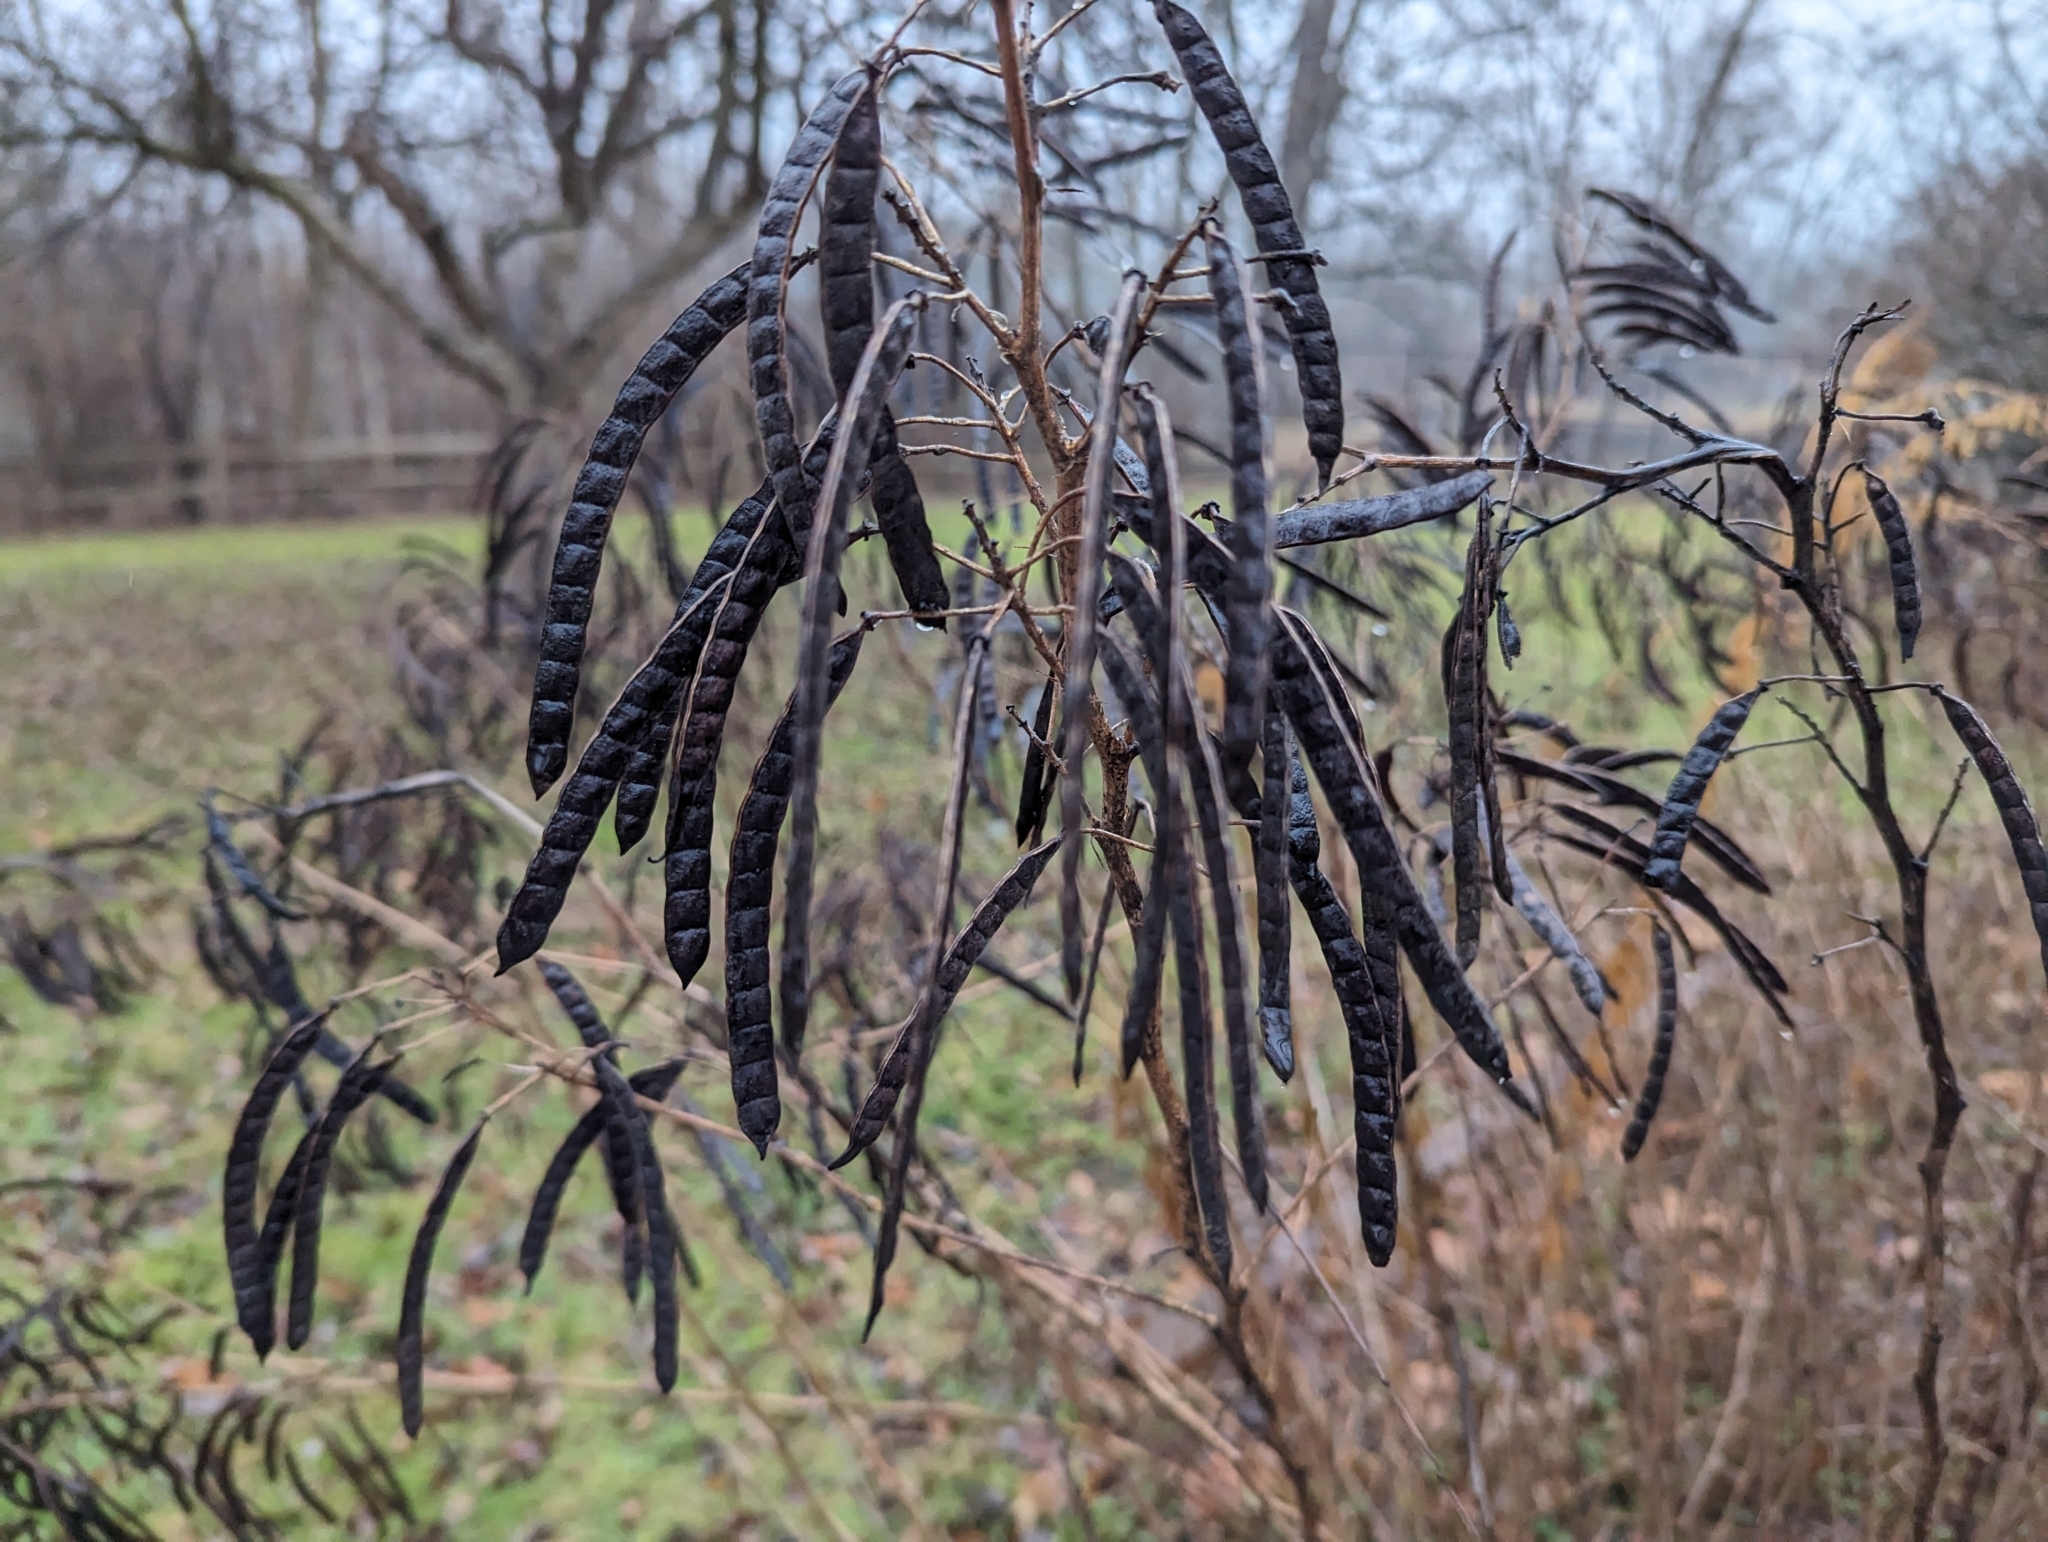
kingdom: Plantae
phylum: Tracheophyta
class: Magnoliopsida
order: Fabales
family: Fabaceae
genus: Senna
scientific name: Senna hebecarpa
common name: Wild senna
